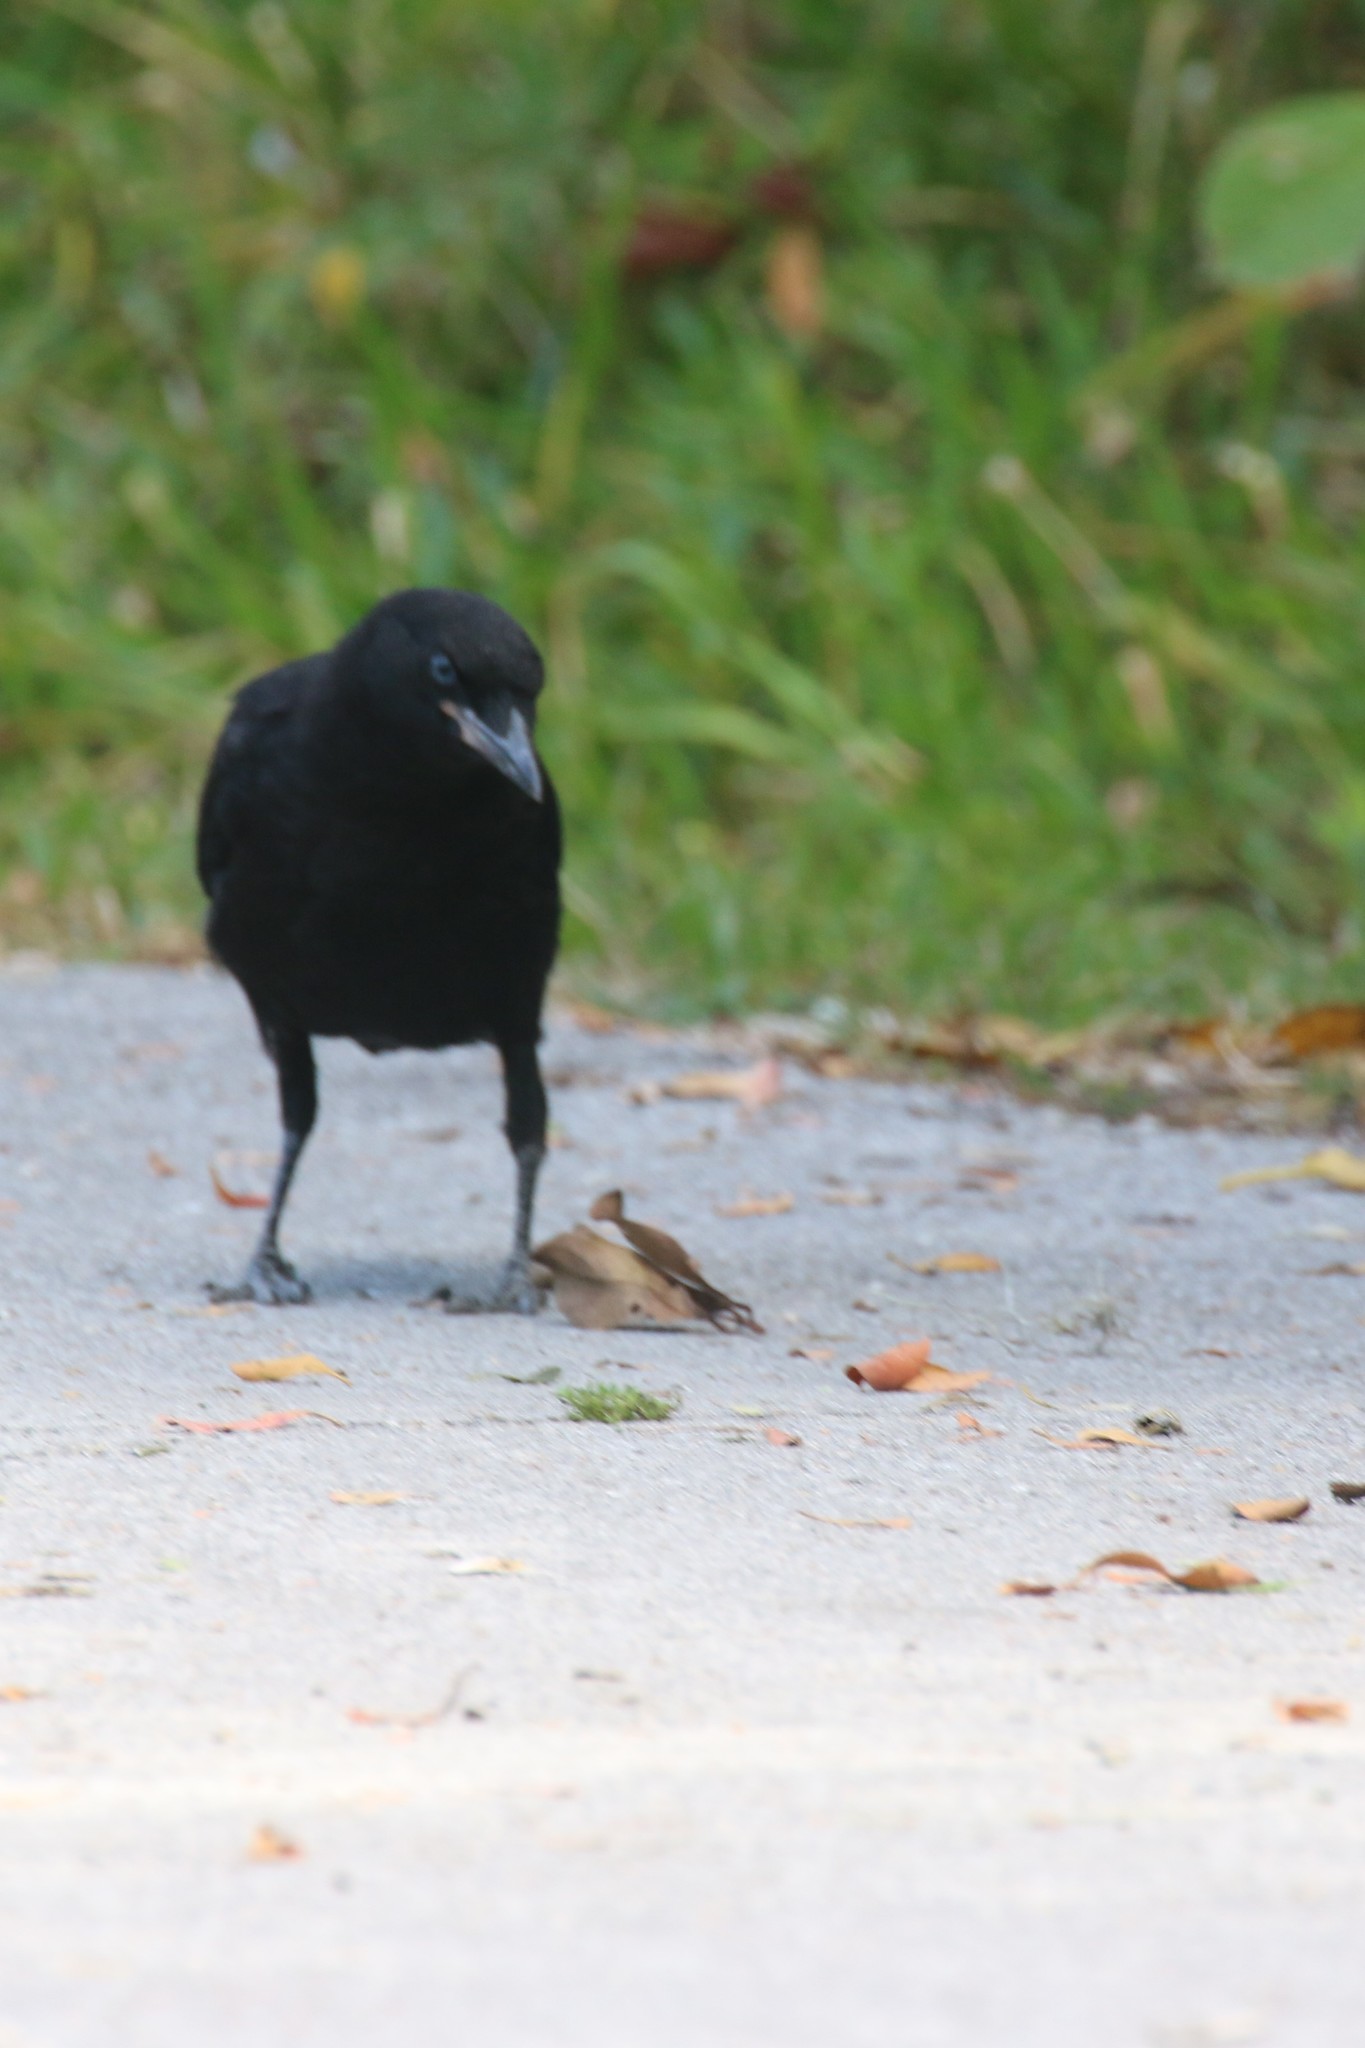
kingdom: Animalia
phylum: Chordata
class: Aves
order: Passeriformes
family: Corvidae
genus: Corvus
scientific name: Corvus brachyrhynchos
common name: American crow
